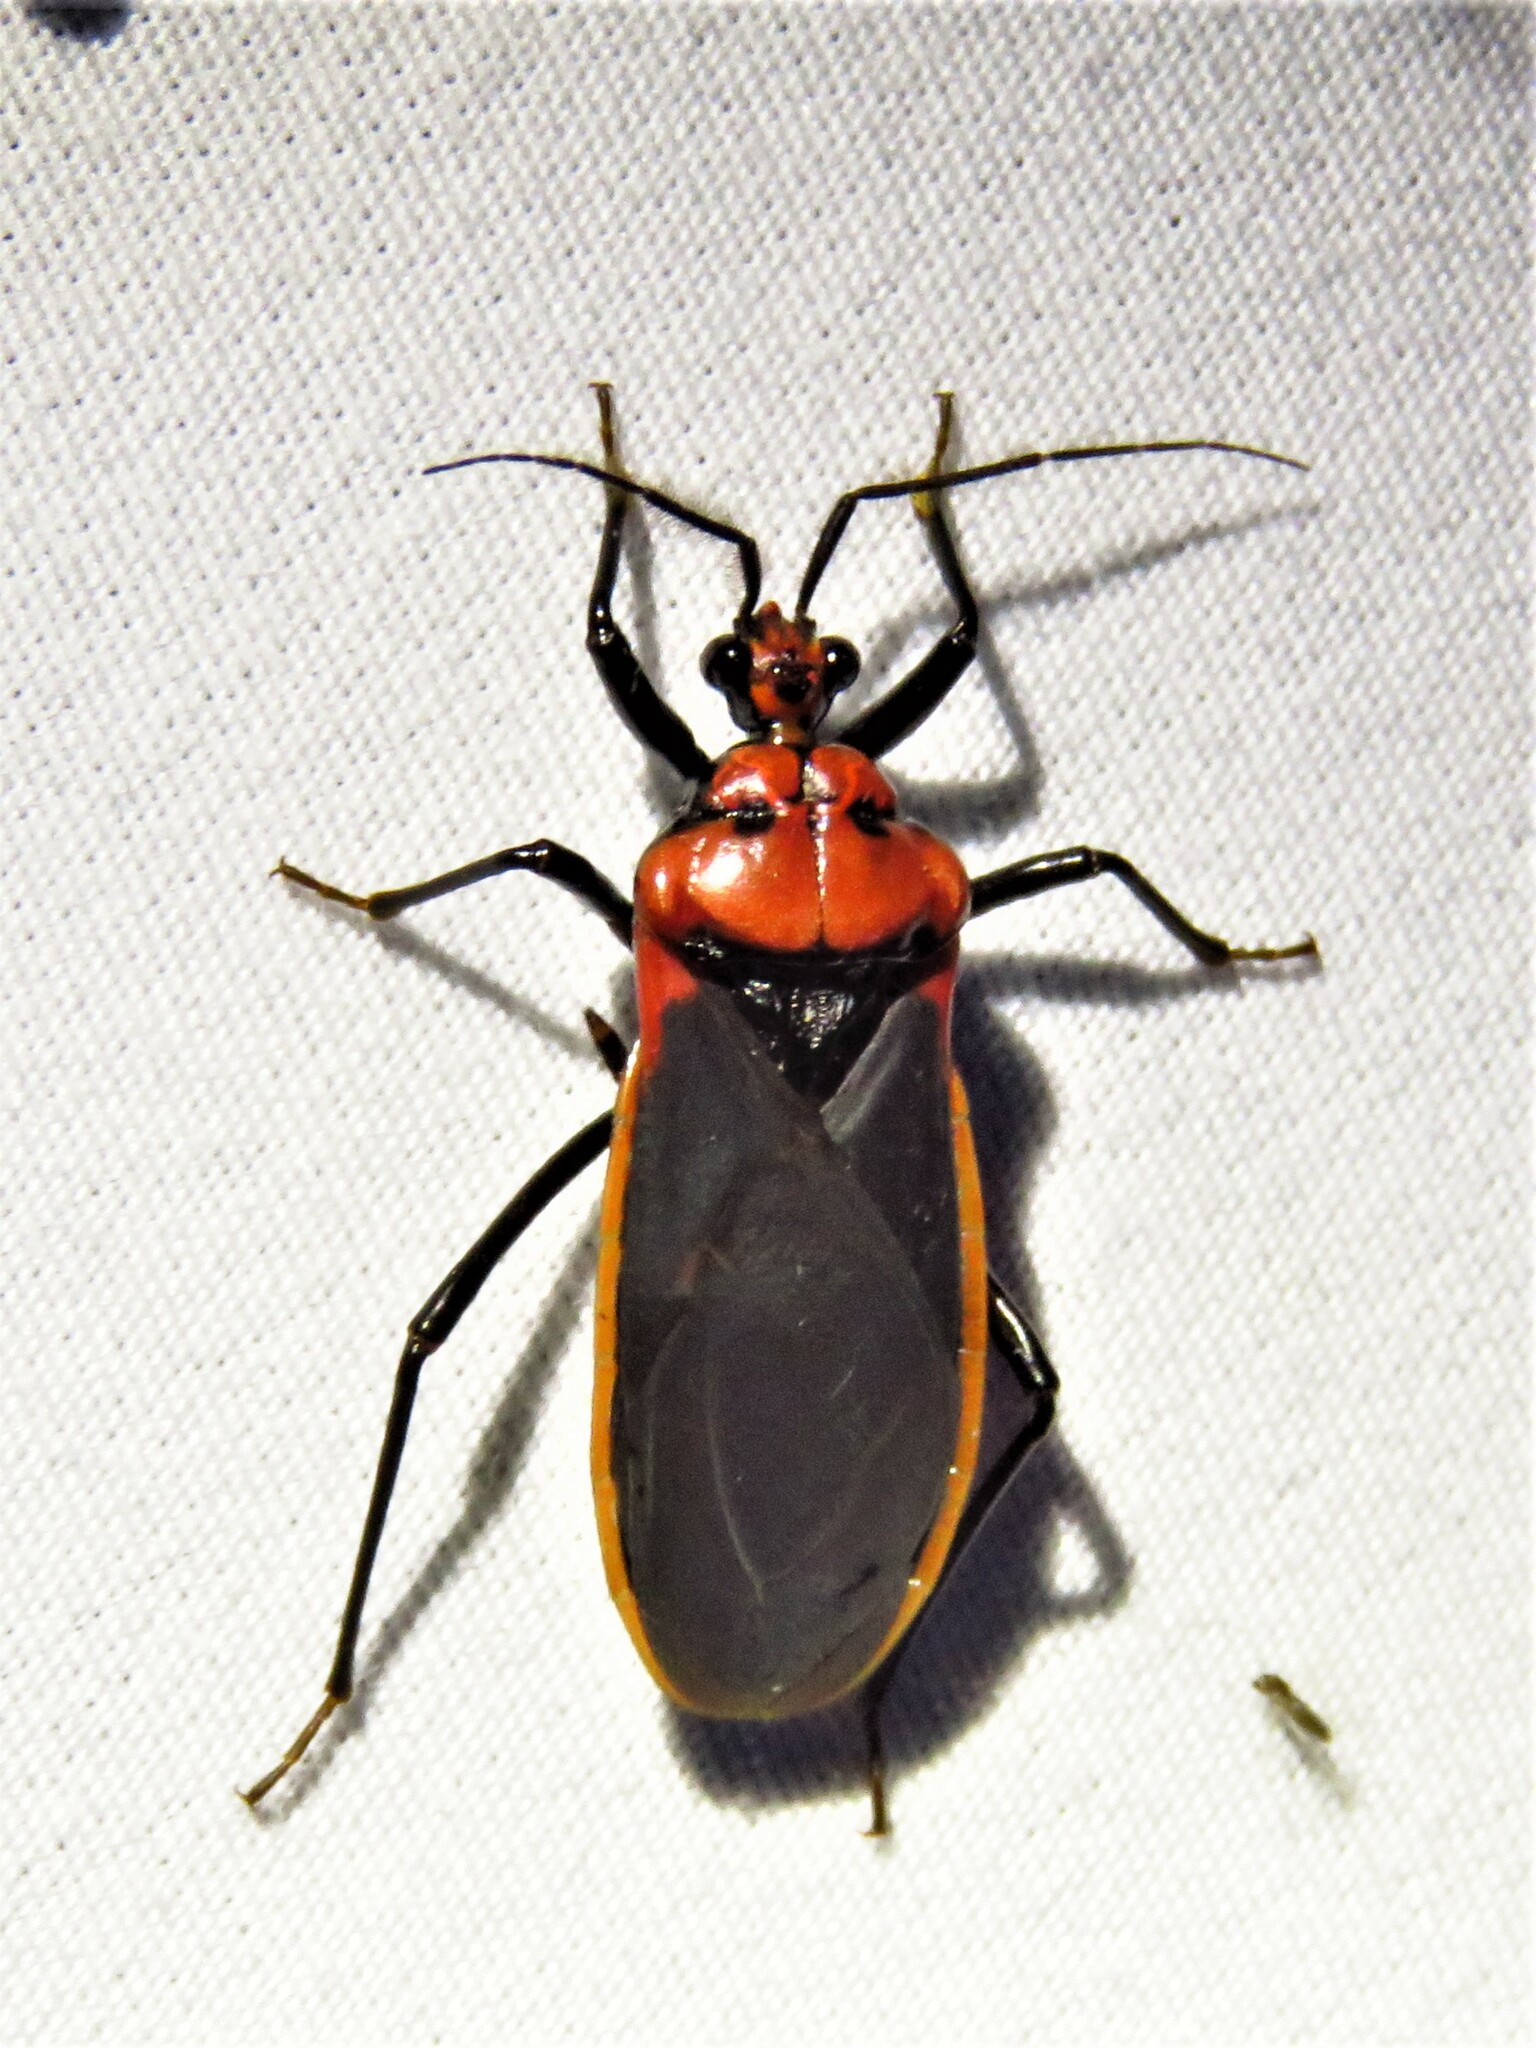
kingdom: Animalia
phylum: Arthropoda
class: Insecta
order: Hemiptera
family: Reduviidae
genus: Rhiginia
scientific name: Rhiginia cinctiventris
